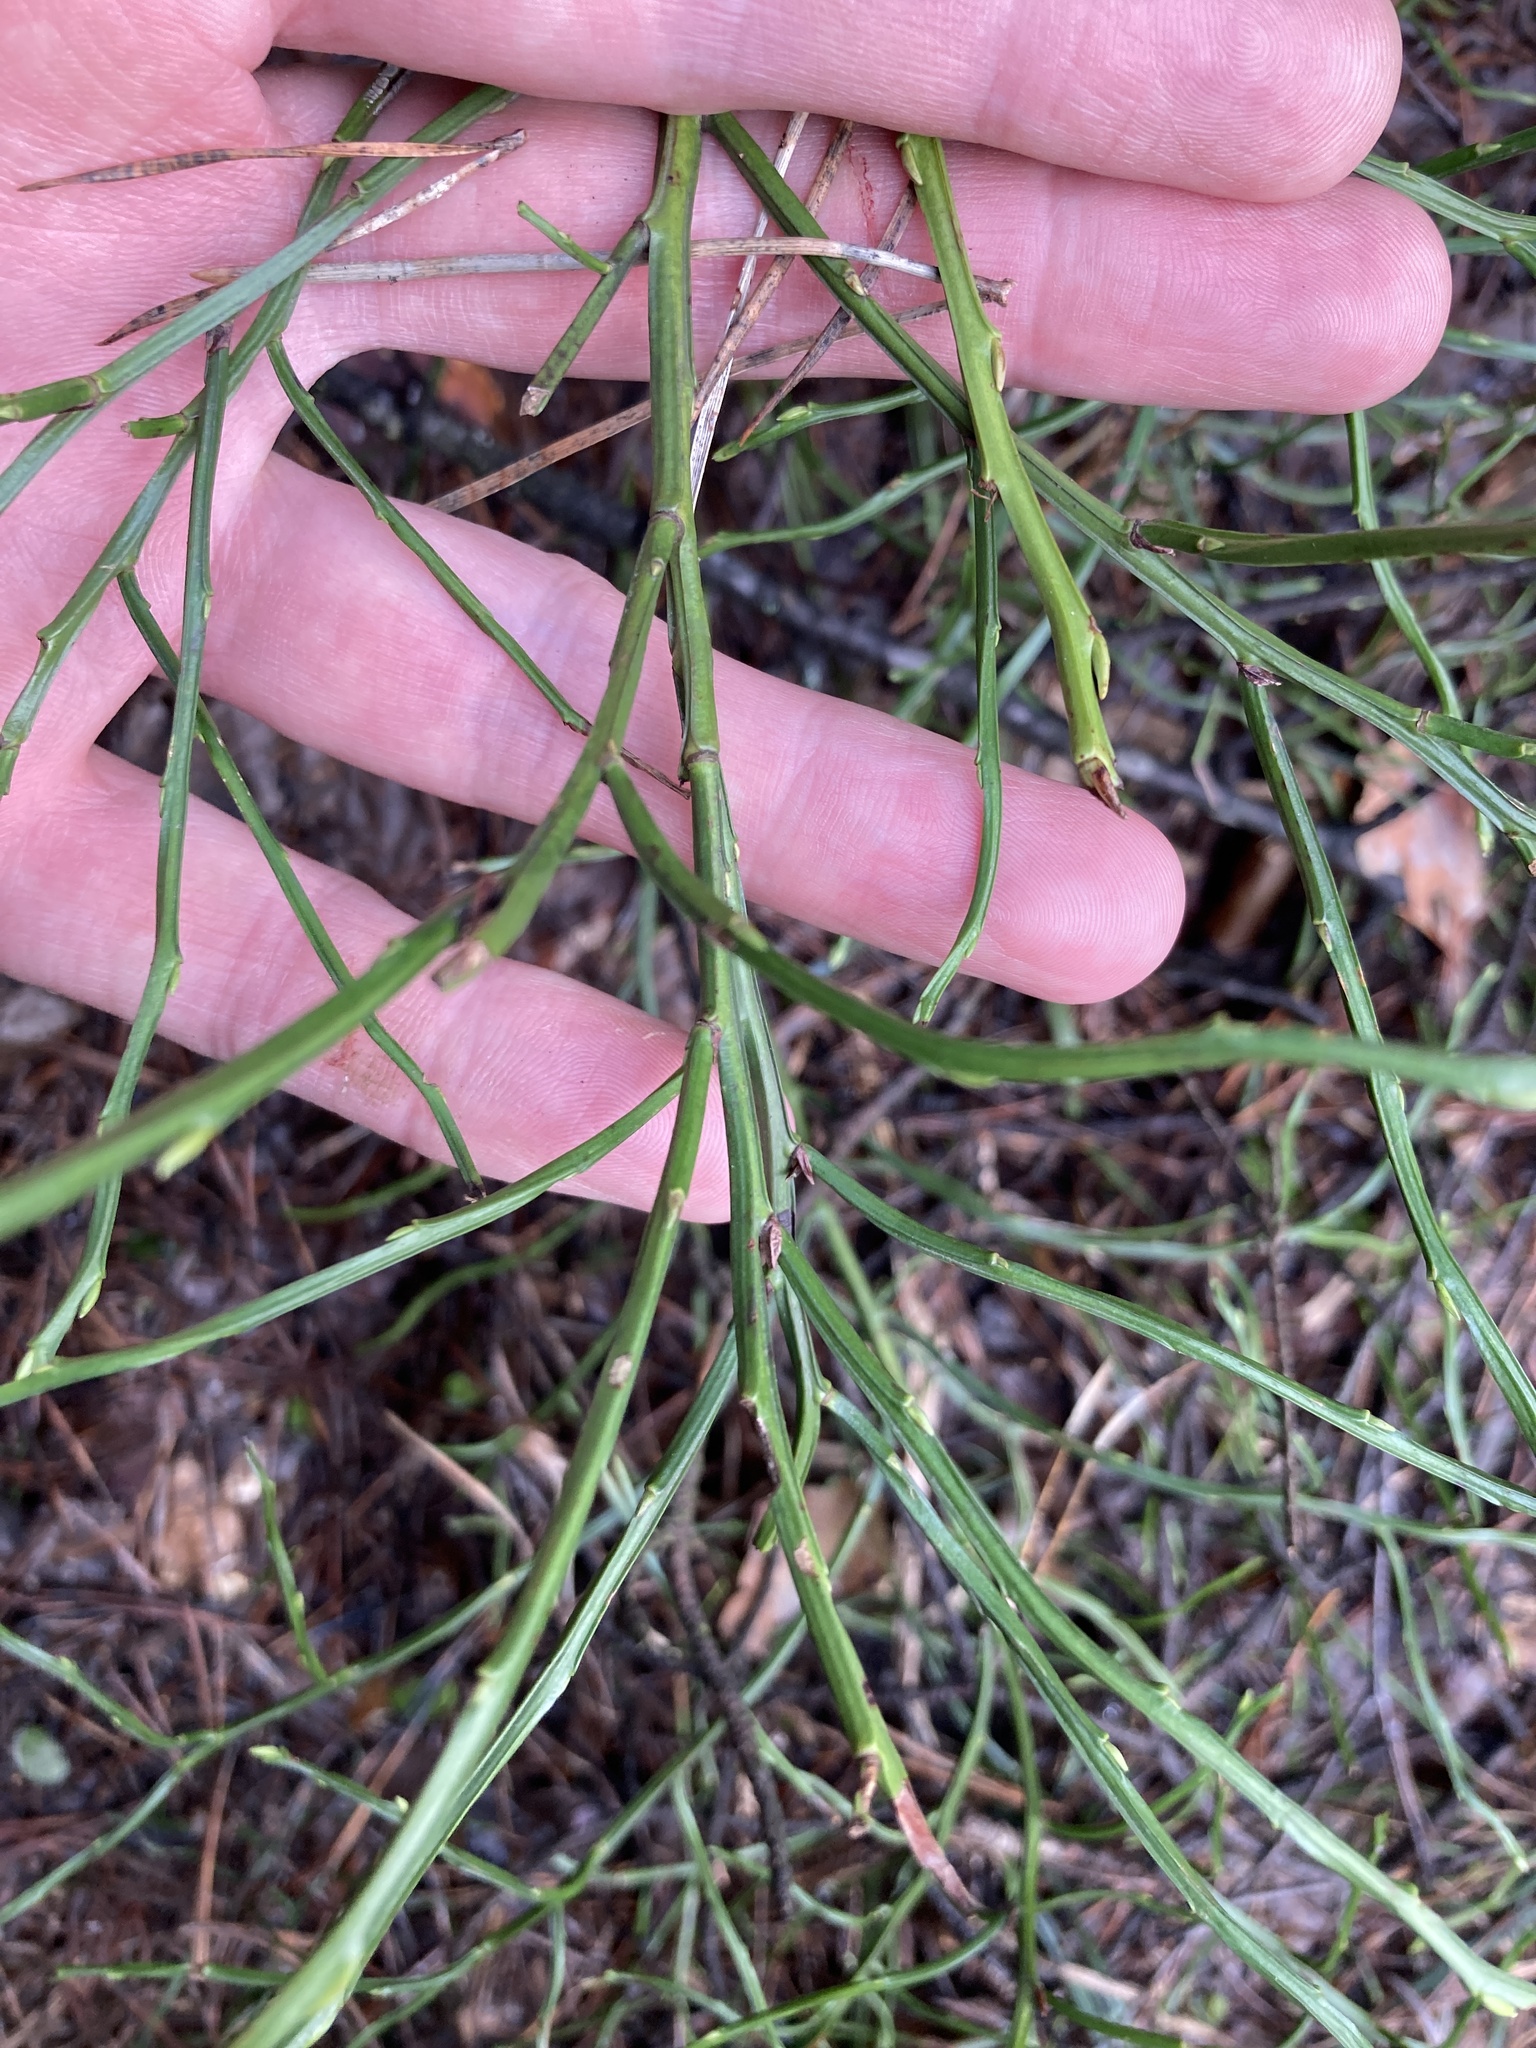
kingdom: Plantae
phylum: Tracheophyta
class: Magnoliopsida
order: Ericales
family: Ericaceae
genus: Vaccinium
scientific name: Vaccinium myrtillus
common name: Bilberry
